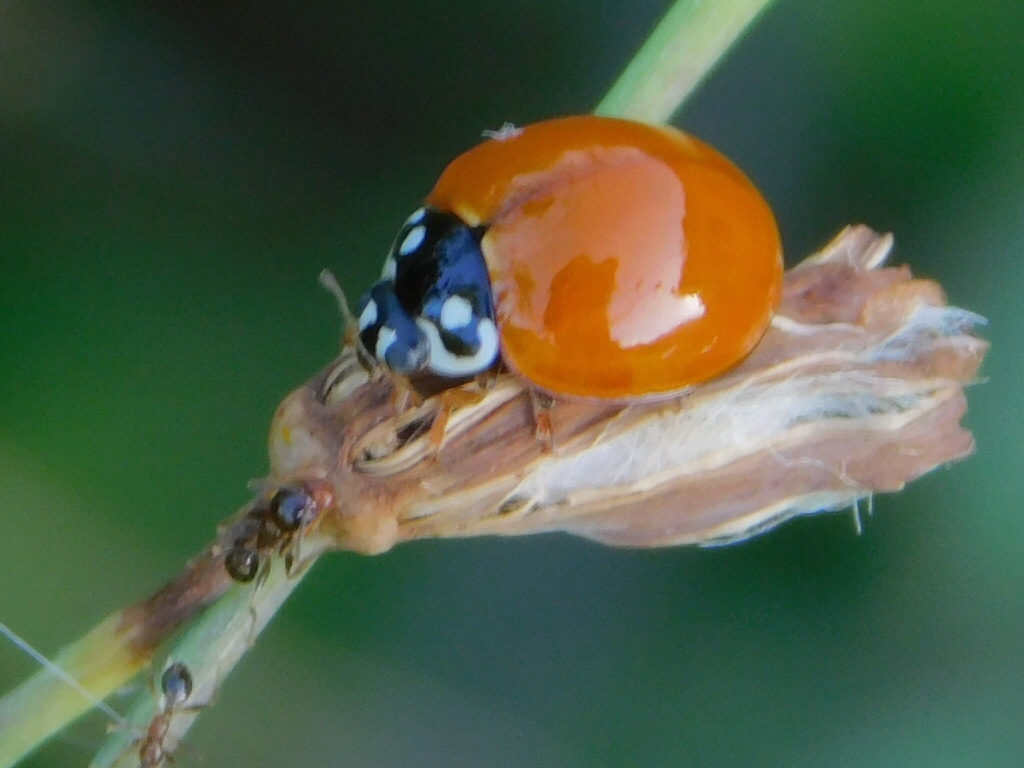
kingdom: Animalia
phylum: Arthropoda
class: Insecta
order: Coleoptera
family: Coccinellidae
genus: Cycloneda
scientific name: Cycloneda sanguinea
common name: Ladybird beetle
